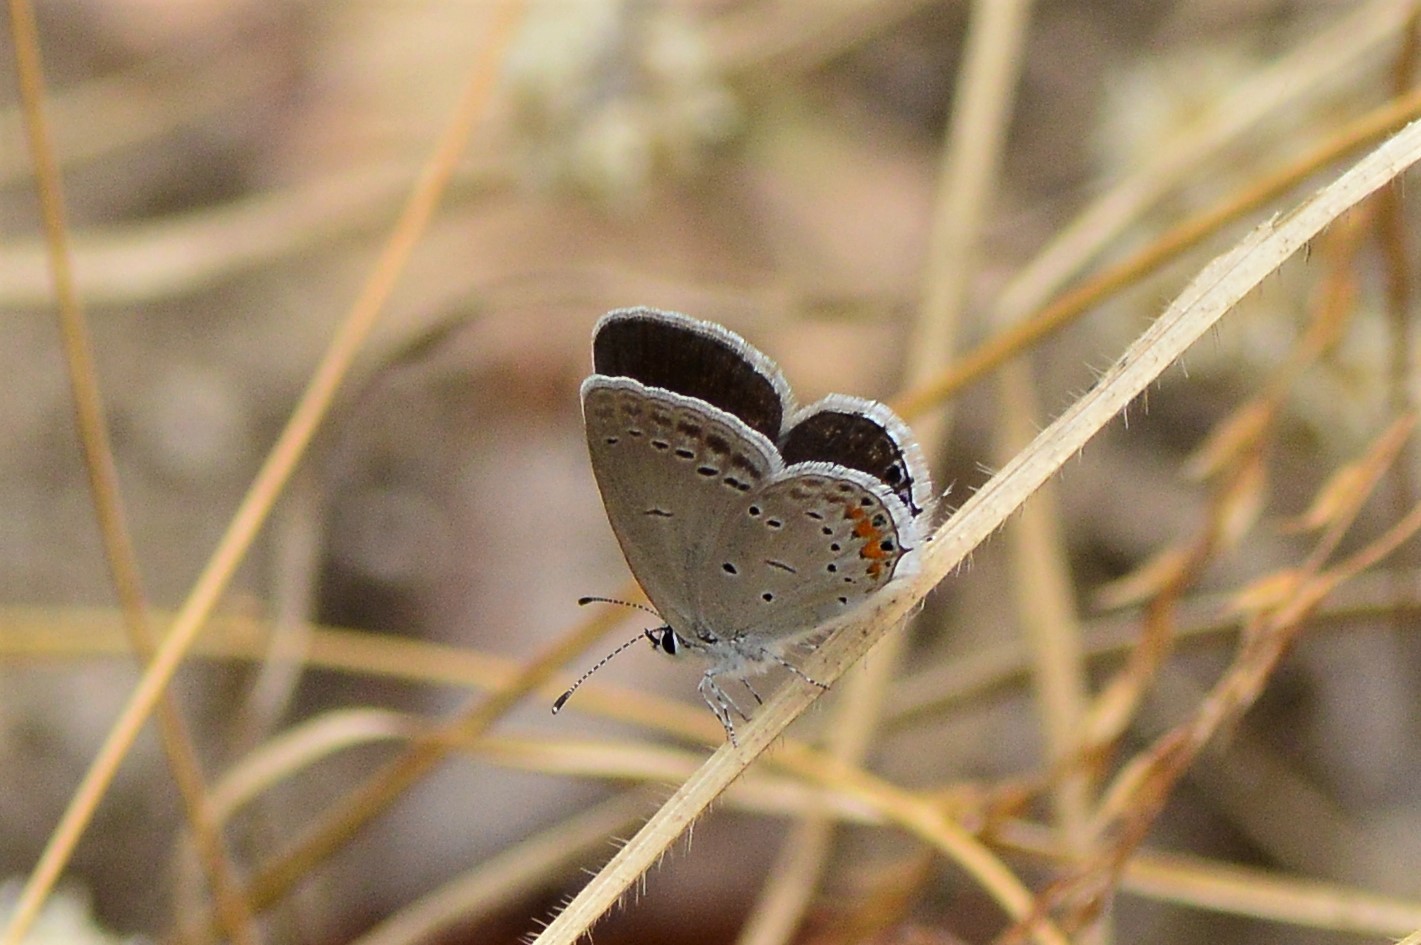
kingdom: Animalia
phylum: Arthropoda
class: Insecta
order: Lepidoptera
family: Lycaenidae
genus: Elkalyce
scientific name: Elkalyce argiades
